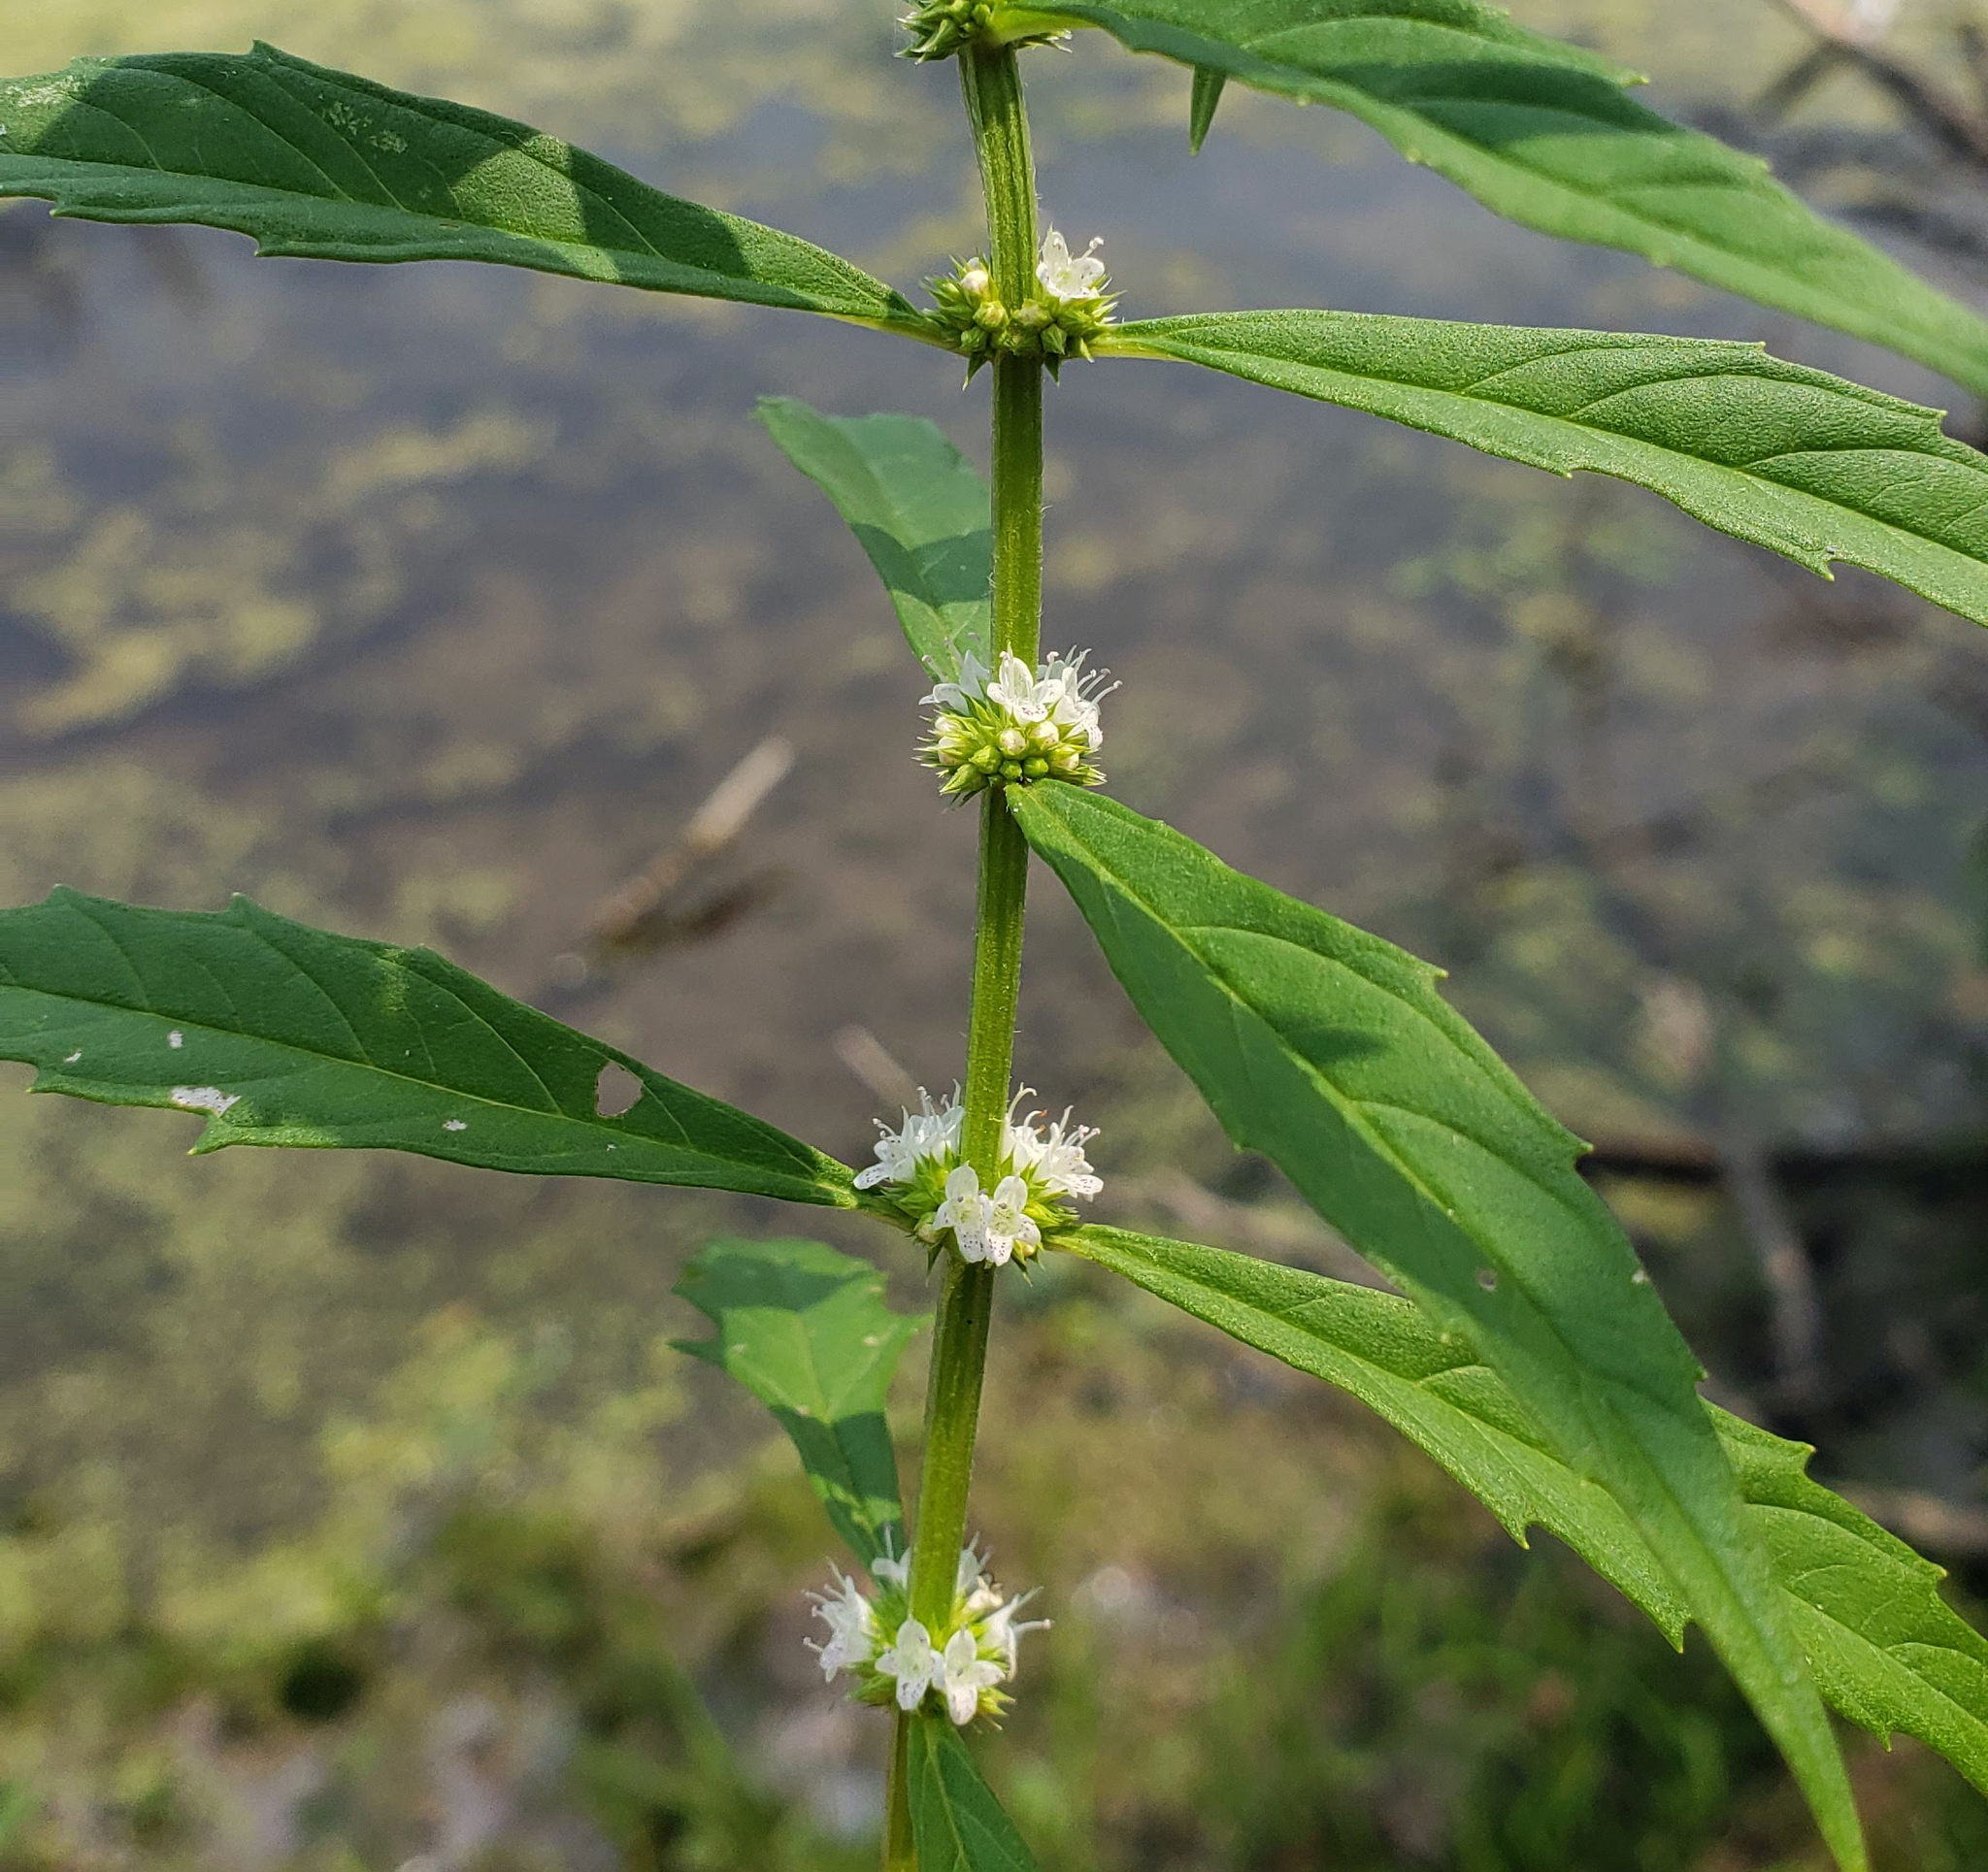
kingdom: Plantae
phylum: Tracheophyta
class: Magnoliopsida
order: Lamiales
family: Lamiaceae
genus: Lycopus
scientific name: Lycopus americanus
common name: American bugleweed
